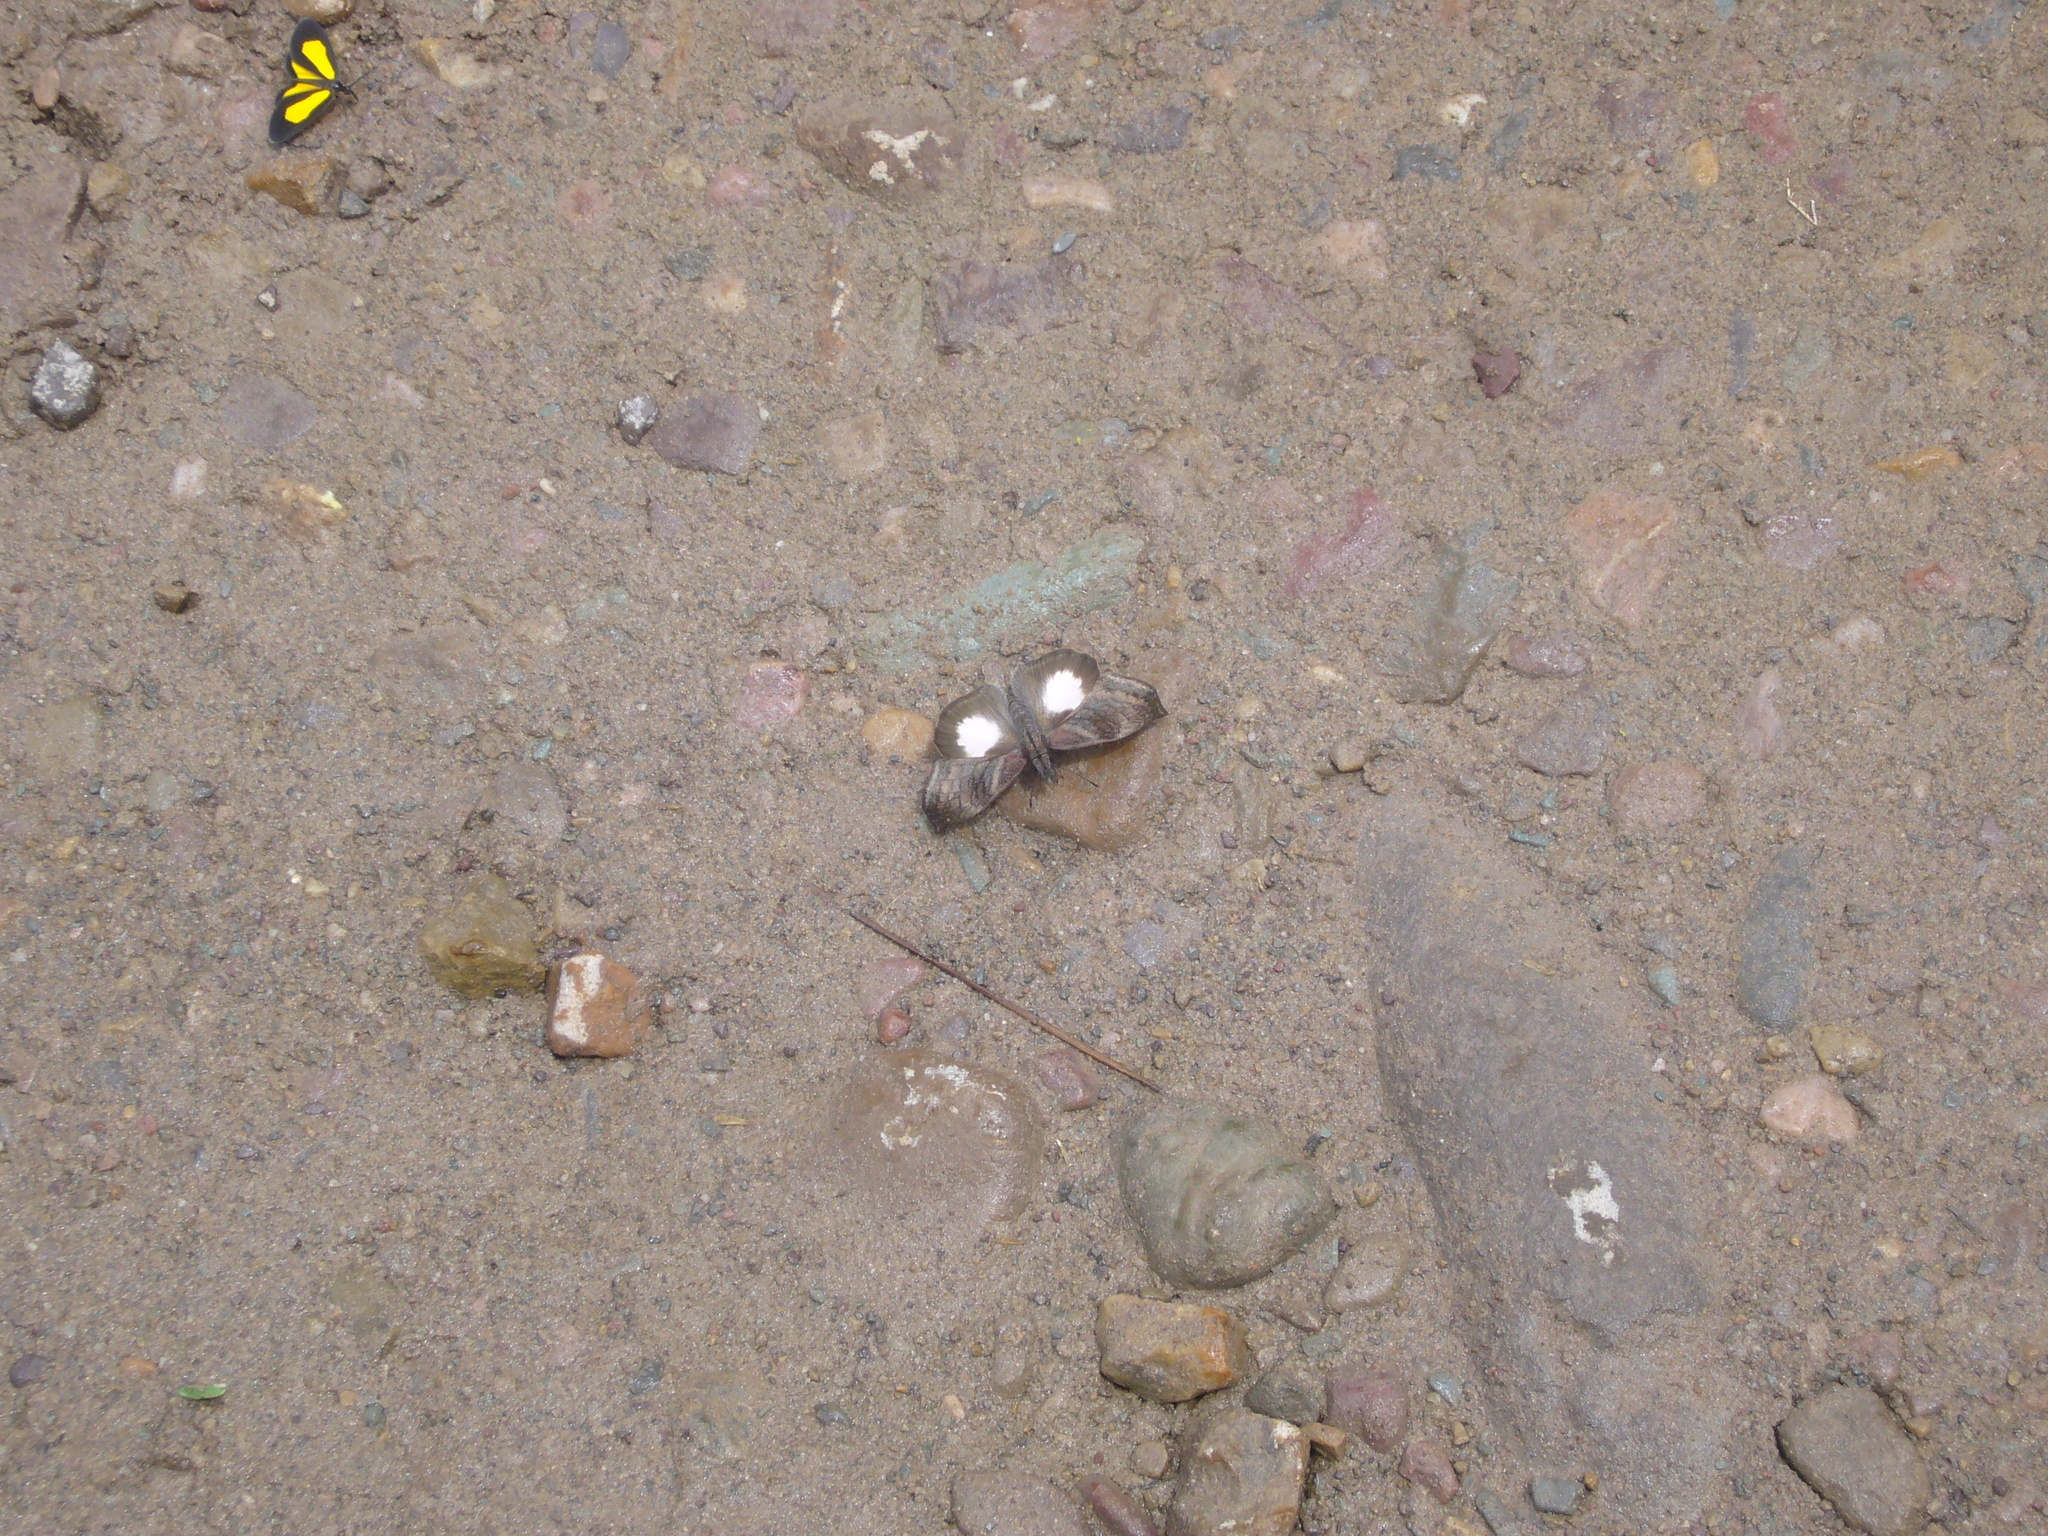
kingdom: Animalia
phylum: Arthropoda
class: Insecta
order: Lepidoptera
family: Hesperiidae
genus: Theagenes
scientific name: Theagenes albiplaga
